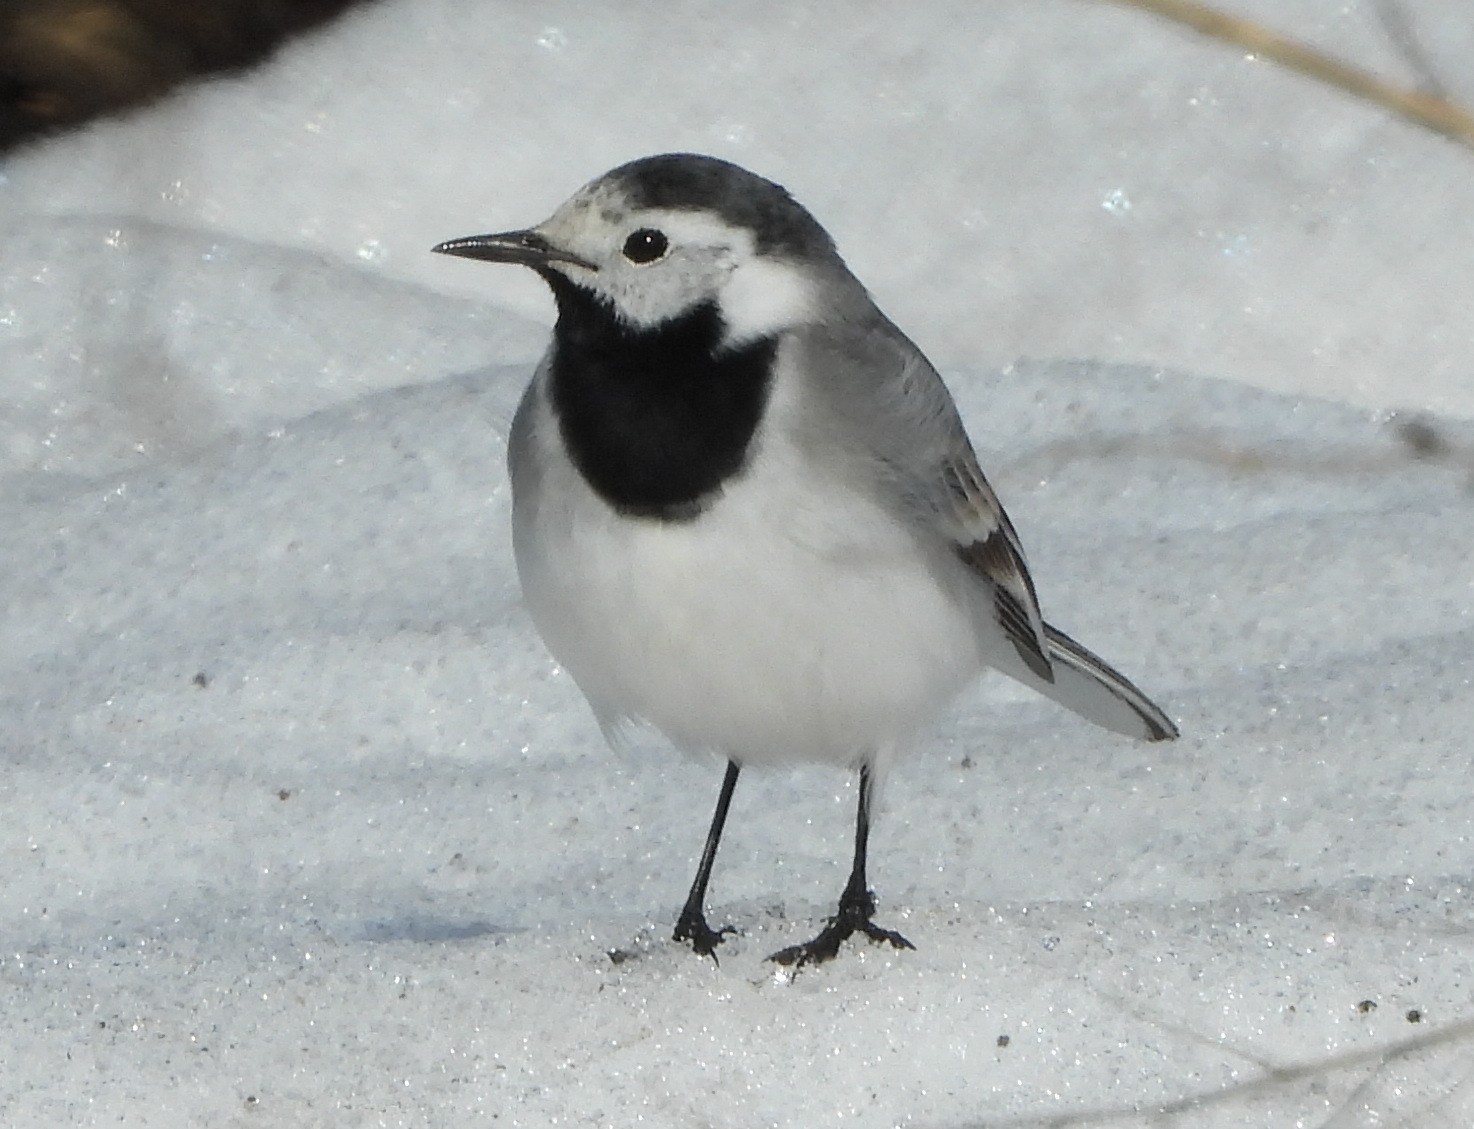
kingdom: Animalia
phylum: Chordata
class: Aves
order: Passeriformes
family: Motacillidae
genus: Motacilla
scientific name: Motacilla alba
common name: White wagtail
